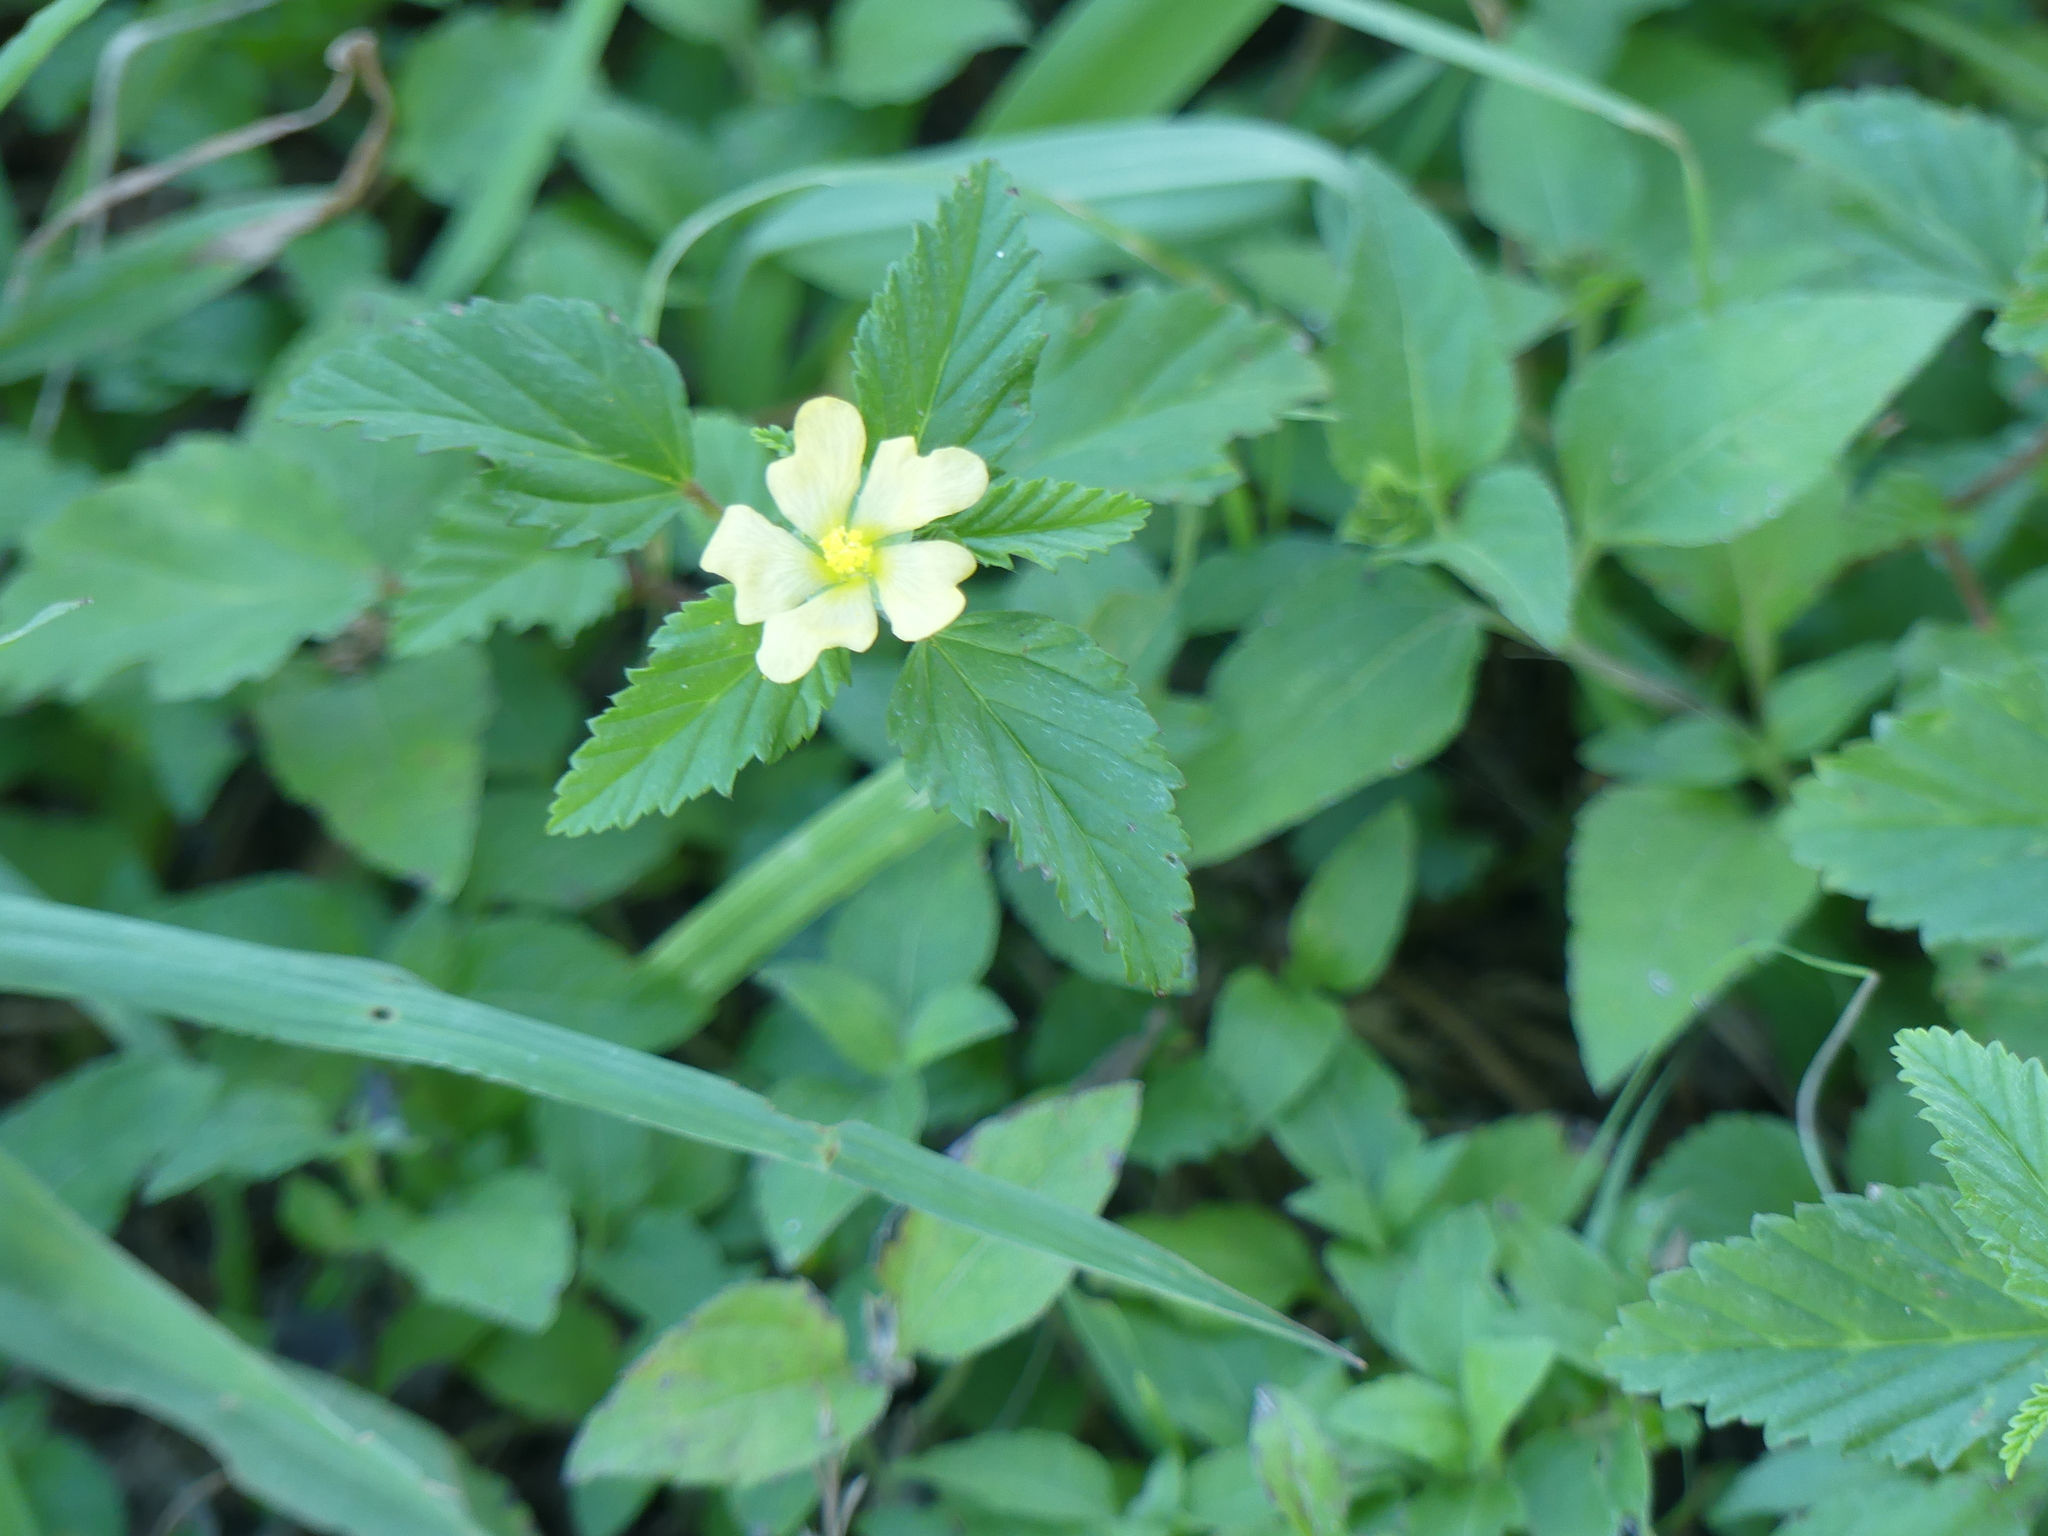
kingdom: Plantae
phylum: Tracheophyta
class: Magnoliopsida
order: Malvales
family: Malvaceae
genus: Malvastrum
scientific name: Malvastrum coromandelianum
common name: Threelobe false mallow
